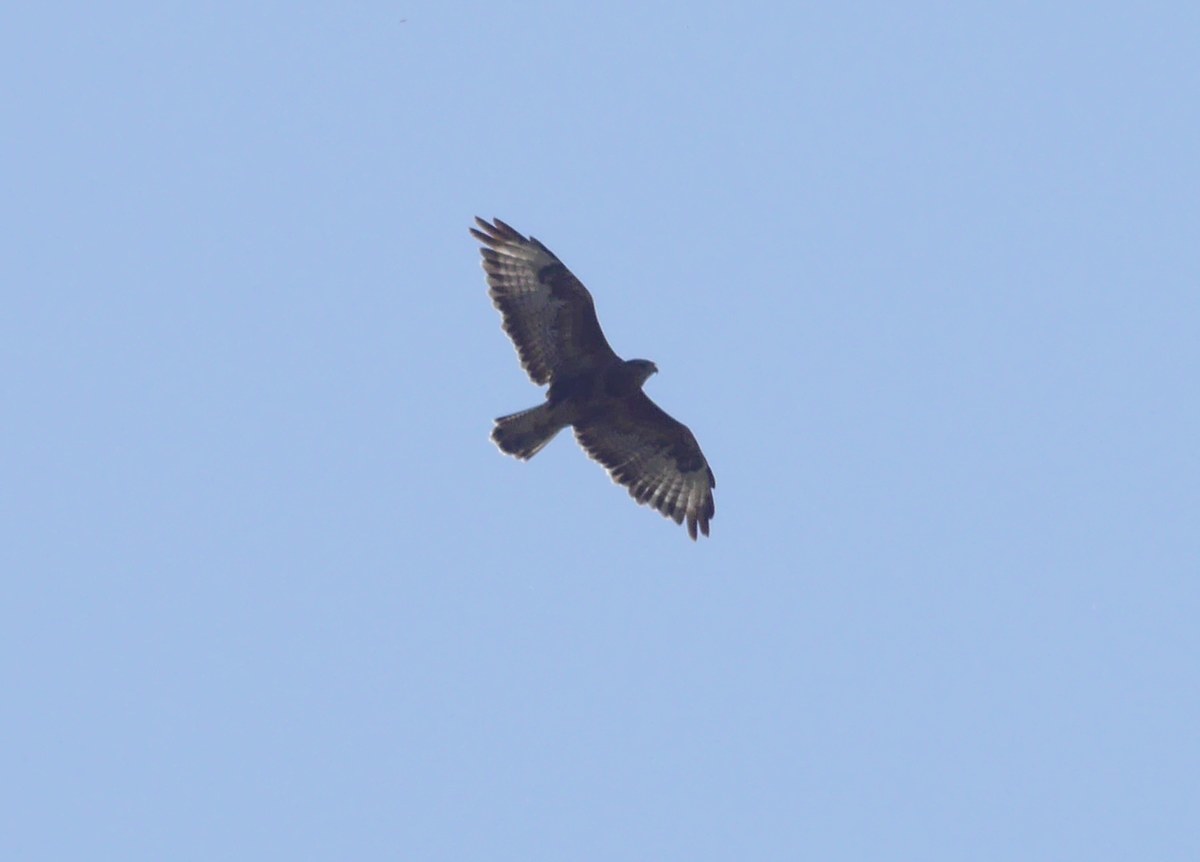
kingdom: Animalia
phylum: Chordata
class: Aves
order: Accipitriformes
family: Accipitridae
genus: Buteo
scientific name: Buteo buteo
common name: Common buzzard
